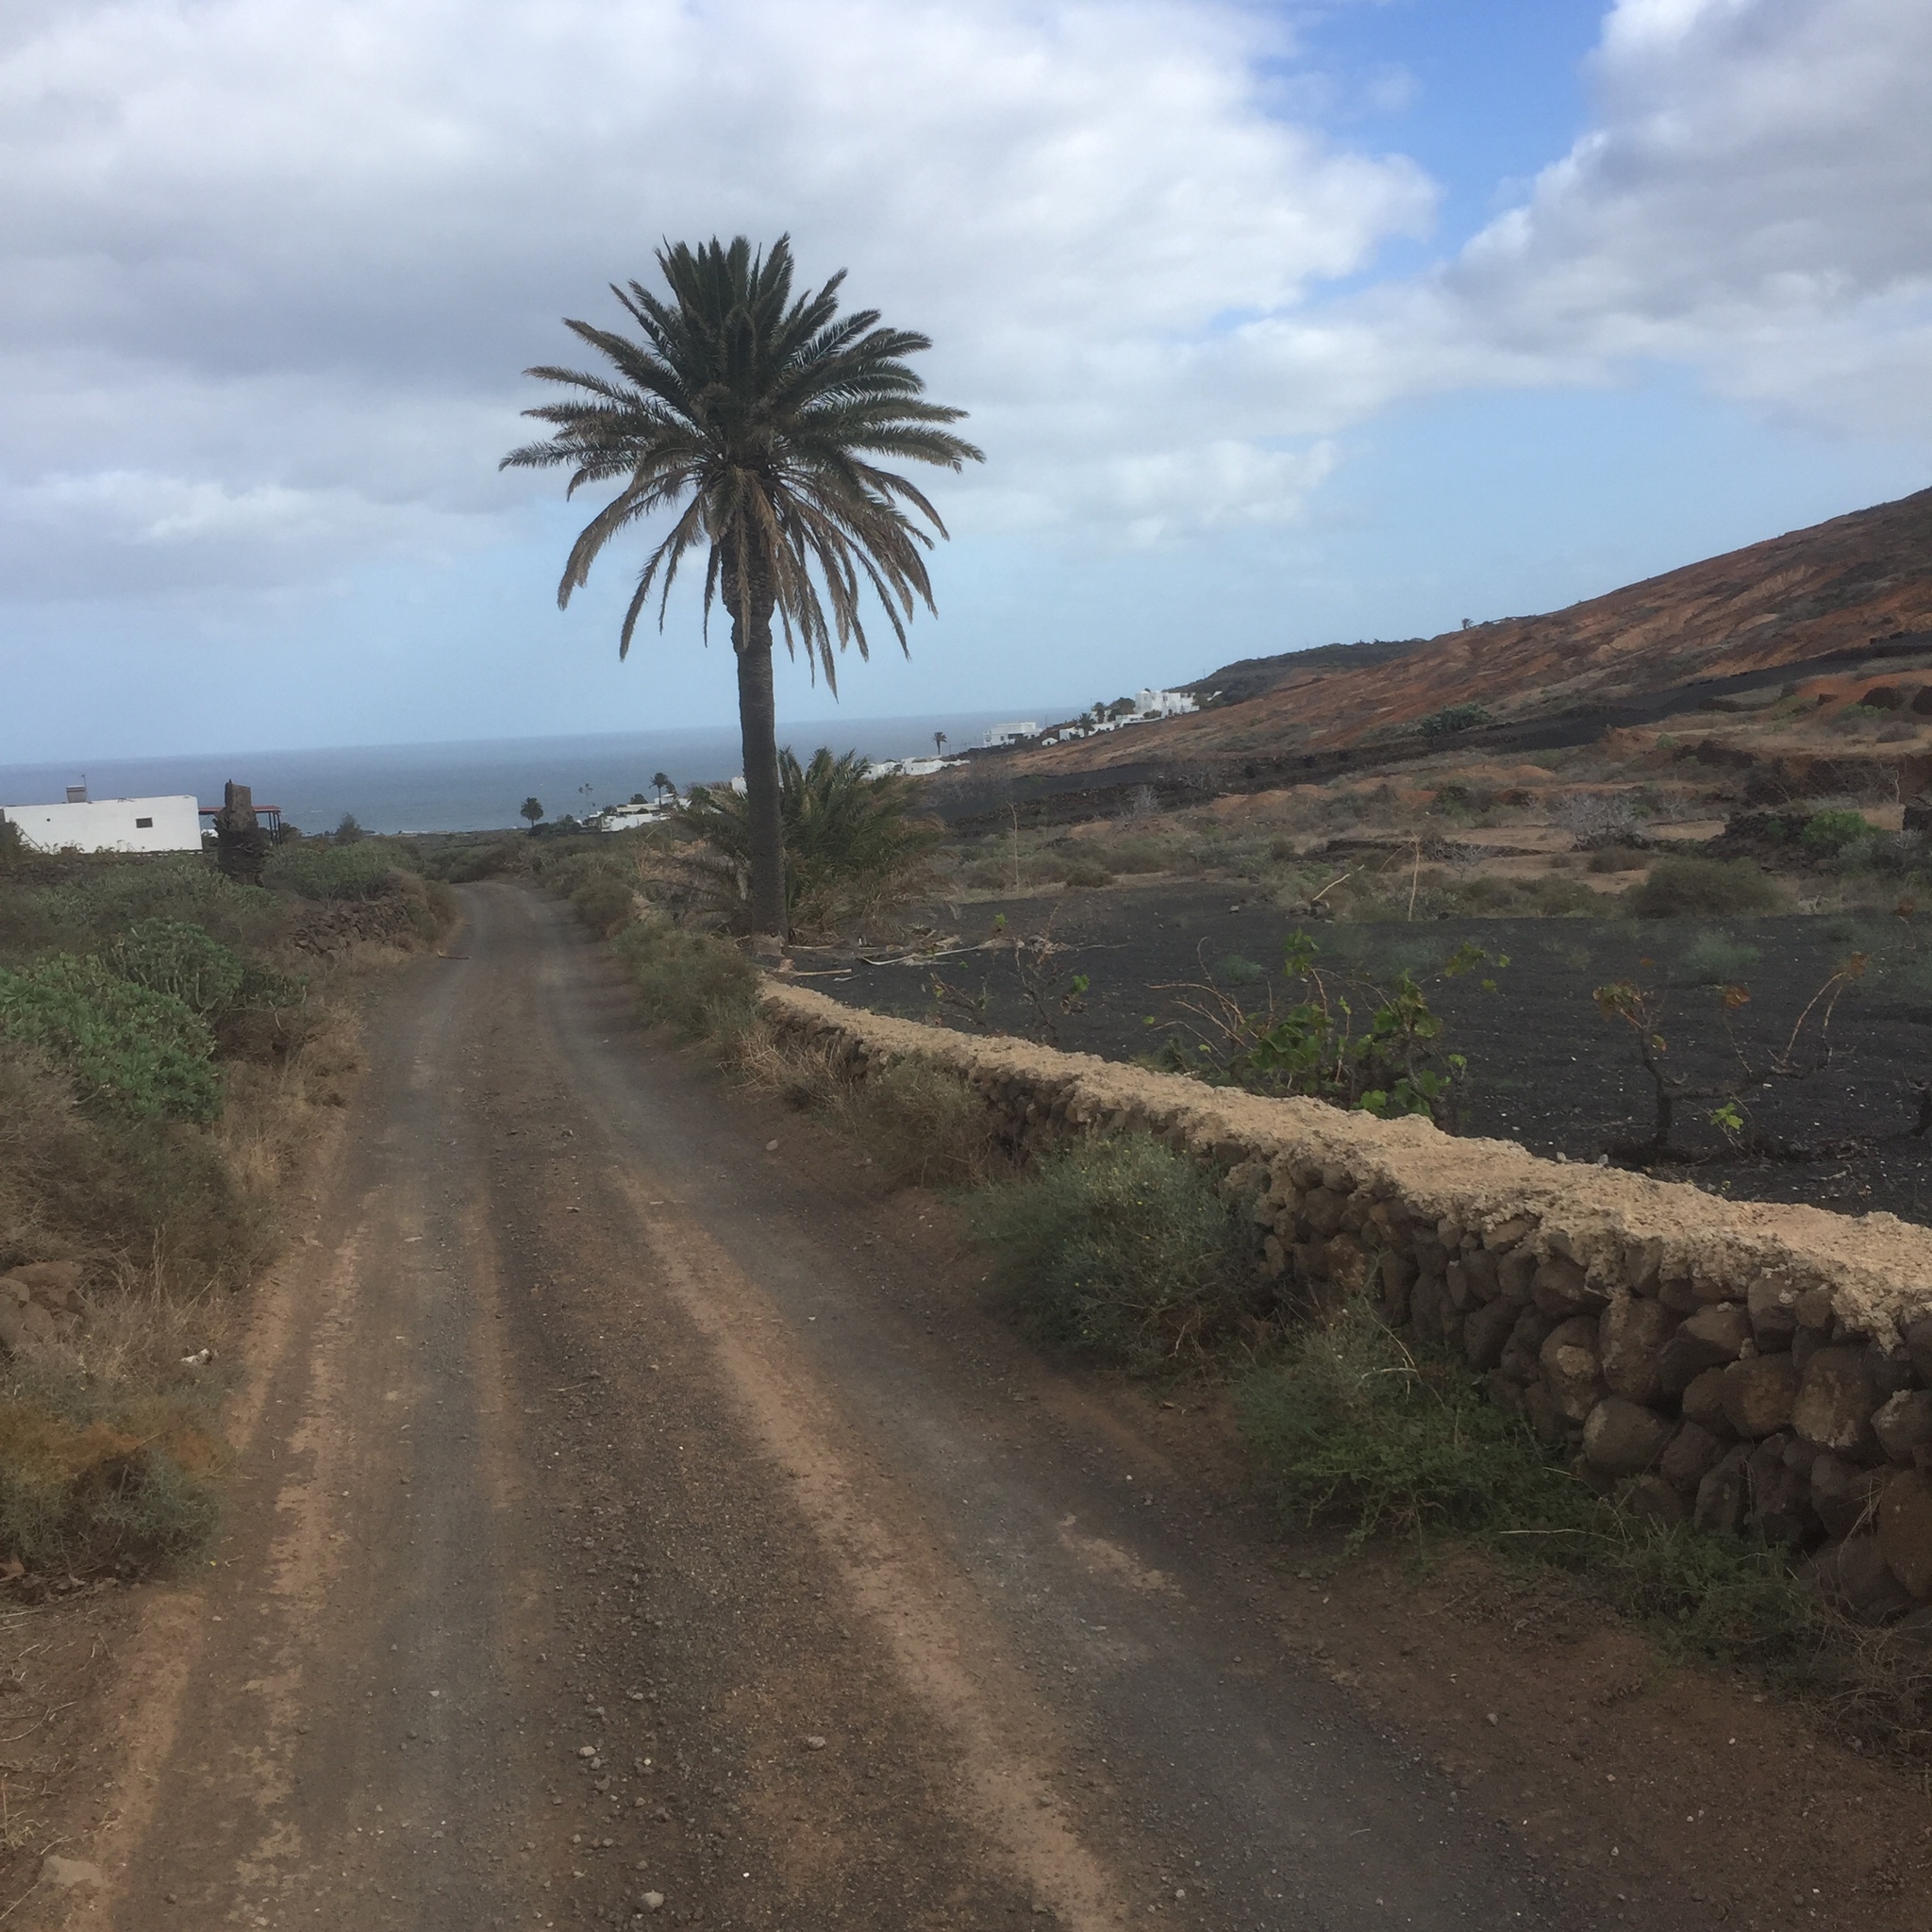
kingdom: Plantae
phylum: Tracheophyta
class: Liliopsida
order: Arecales
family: Arecaceae
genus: Phoenix
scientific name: Phoenix canariensis
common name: Canary island date palm
